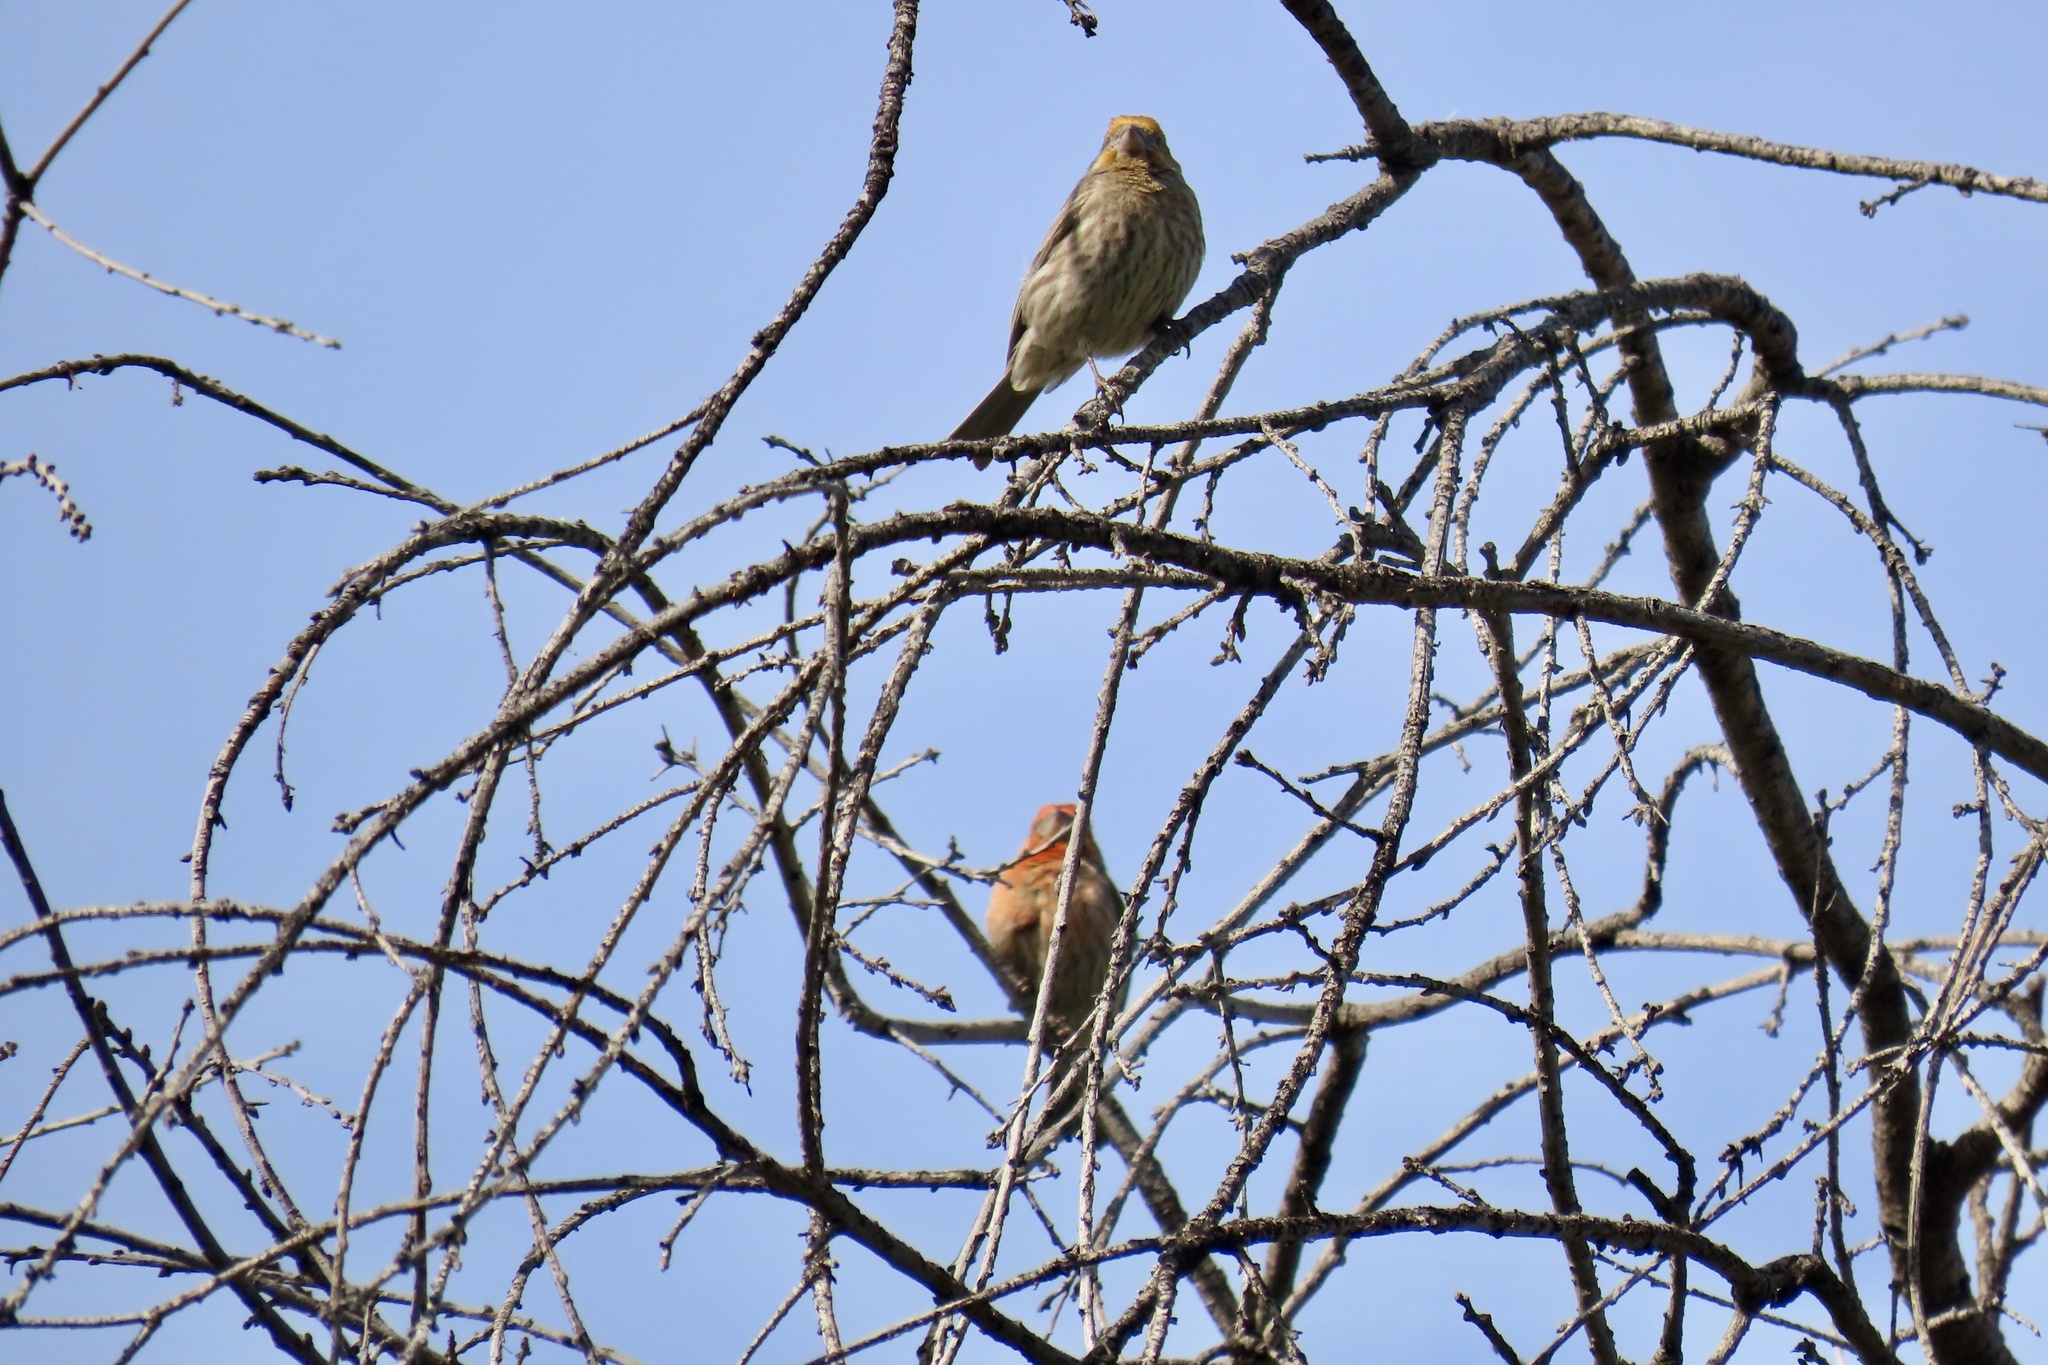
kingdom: Animalia
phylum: Chordata
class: Aves
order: Passeriformes
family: Fringillidae
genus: Haemorhous
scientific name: Haemorhous mexicanus
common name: House finch
